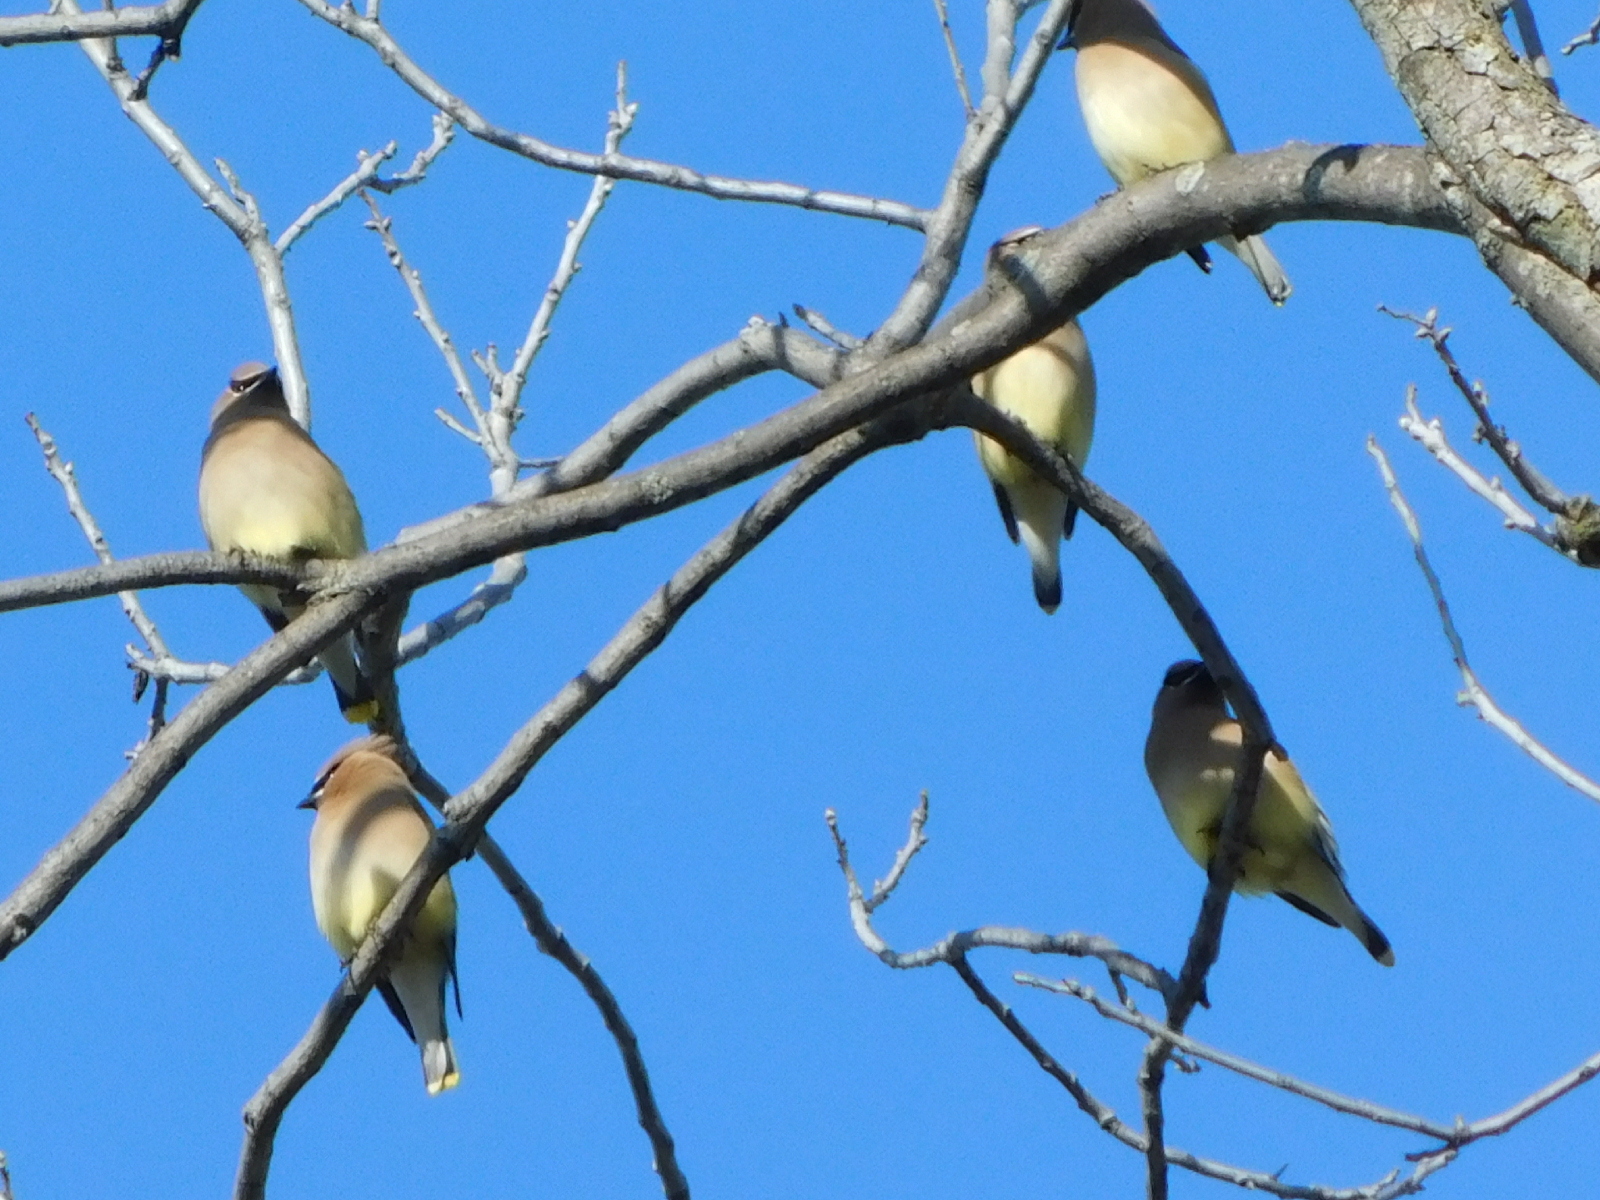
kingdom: Animalia
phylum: Chordata
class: Aves
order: Passeriformes
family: Bombycillidae
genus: Bombycilla
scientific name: Bombycilla cedrorum
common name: Cedar waxwing
